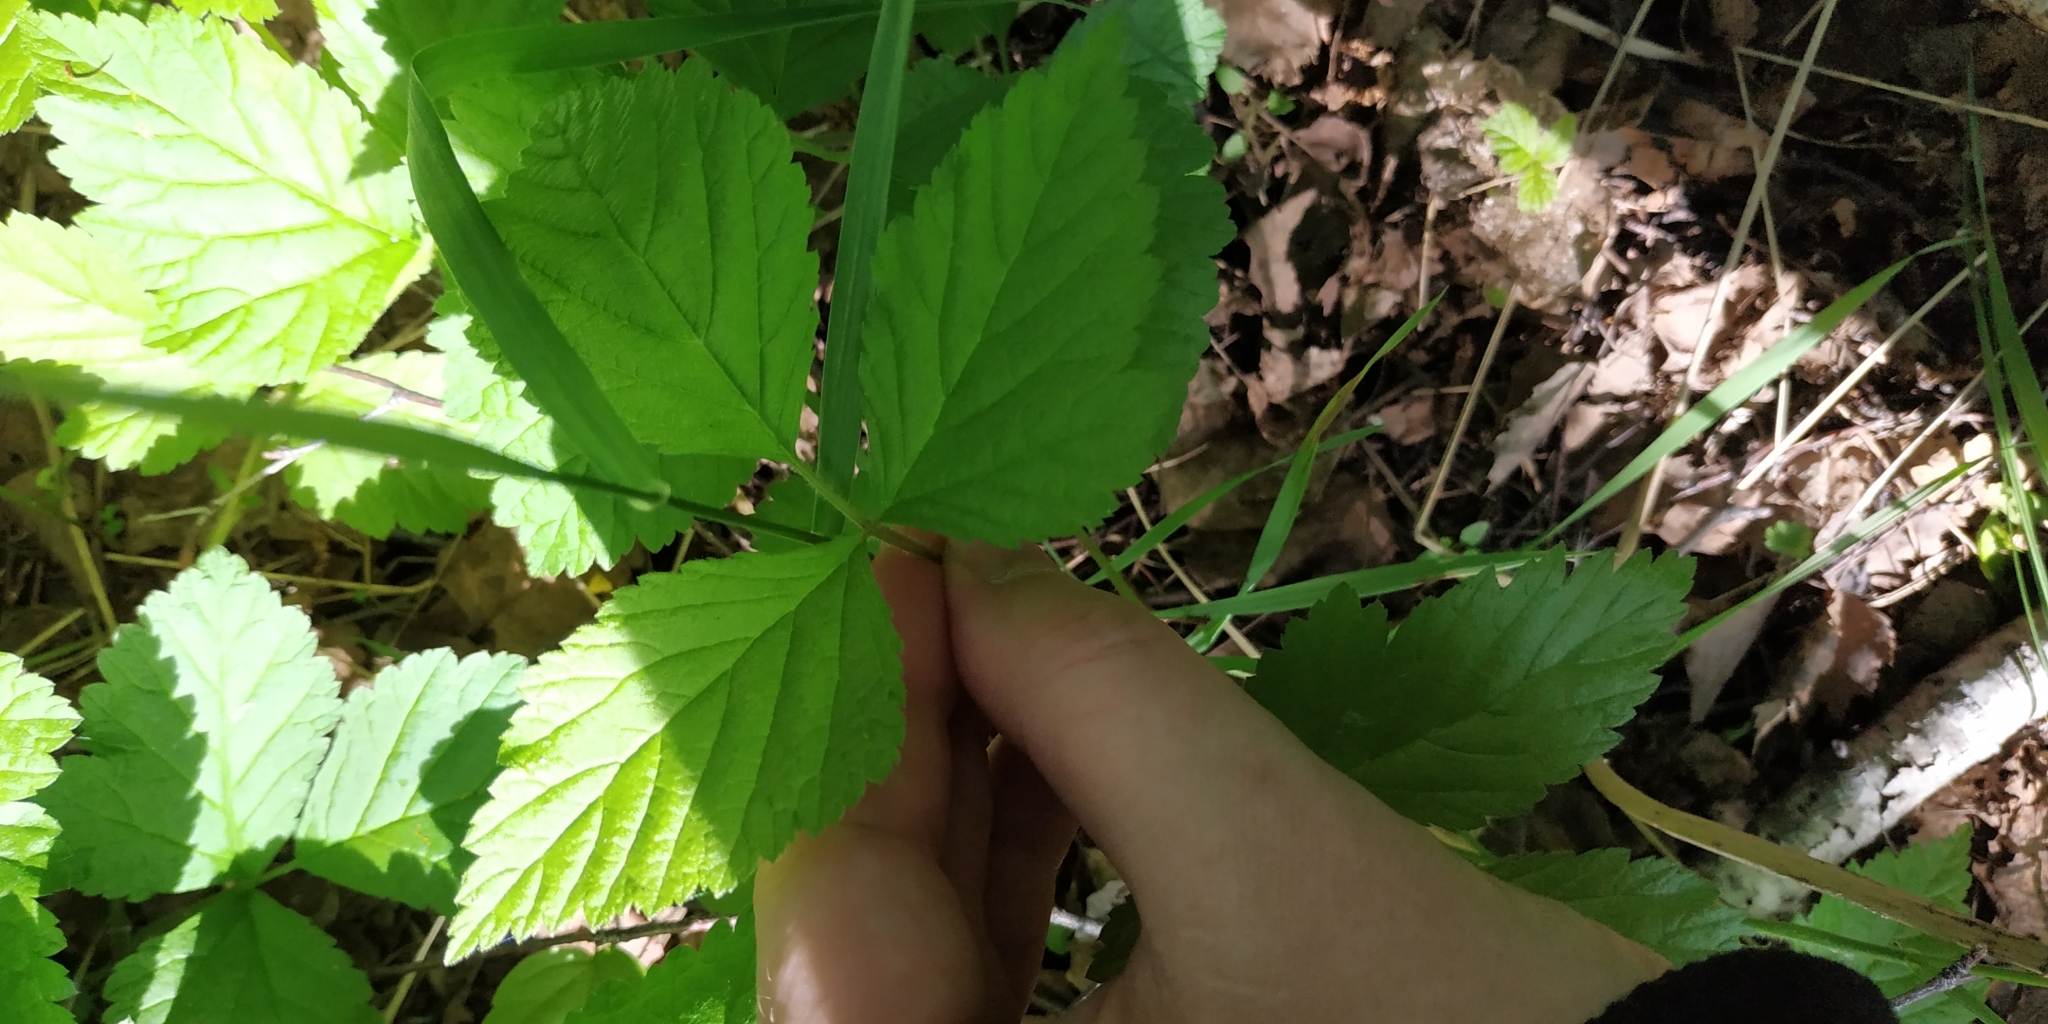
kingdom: Plantae
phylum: Tracheophyta
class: Magnoliopsida
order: Rosales
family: Rosaceae
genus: Rubus
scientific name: Rubus saxatilis
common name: Stone bramble
